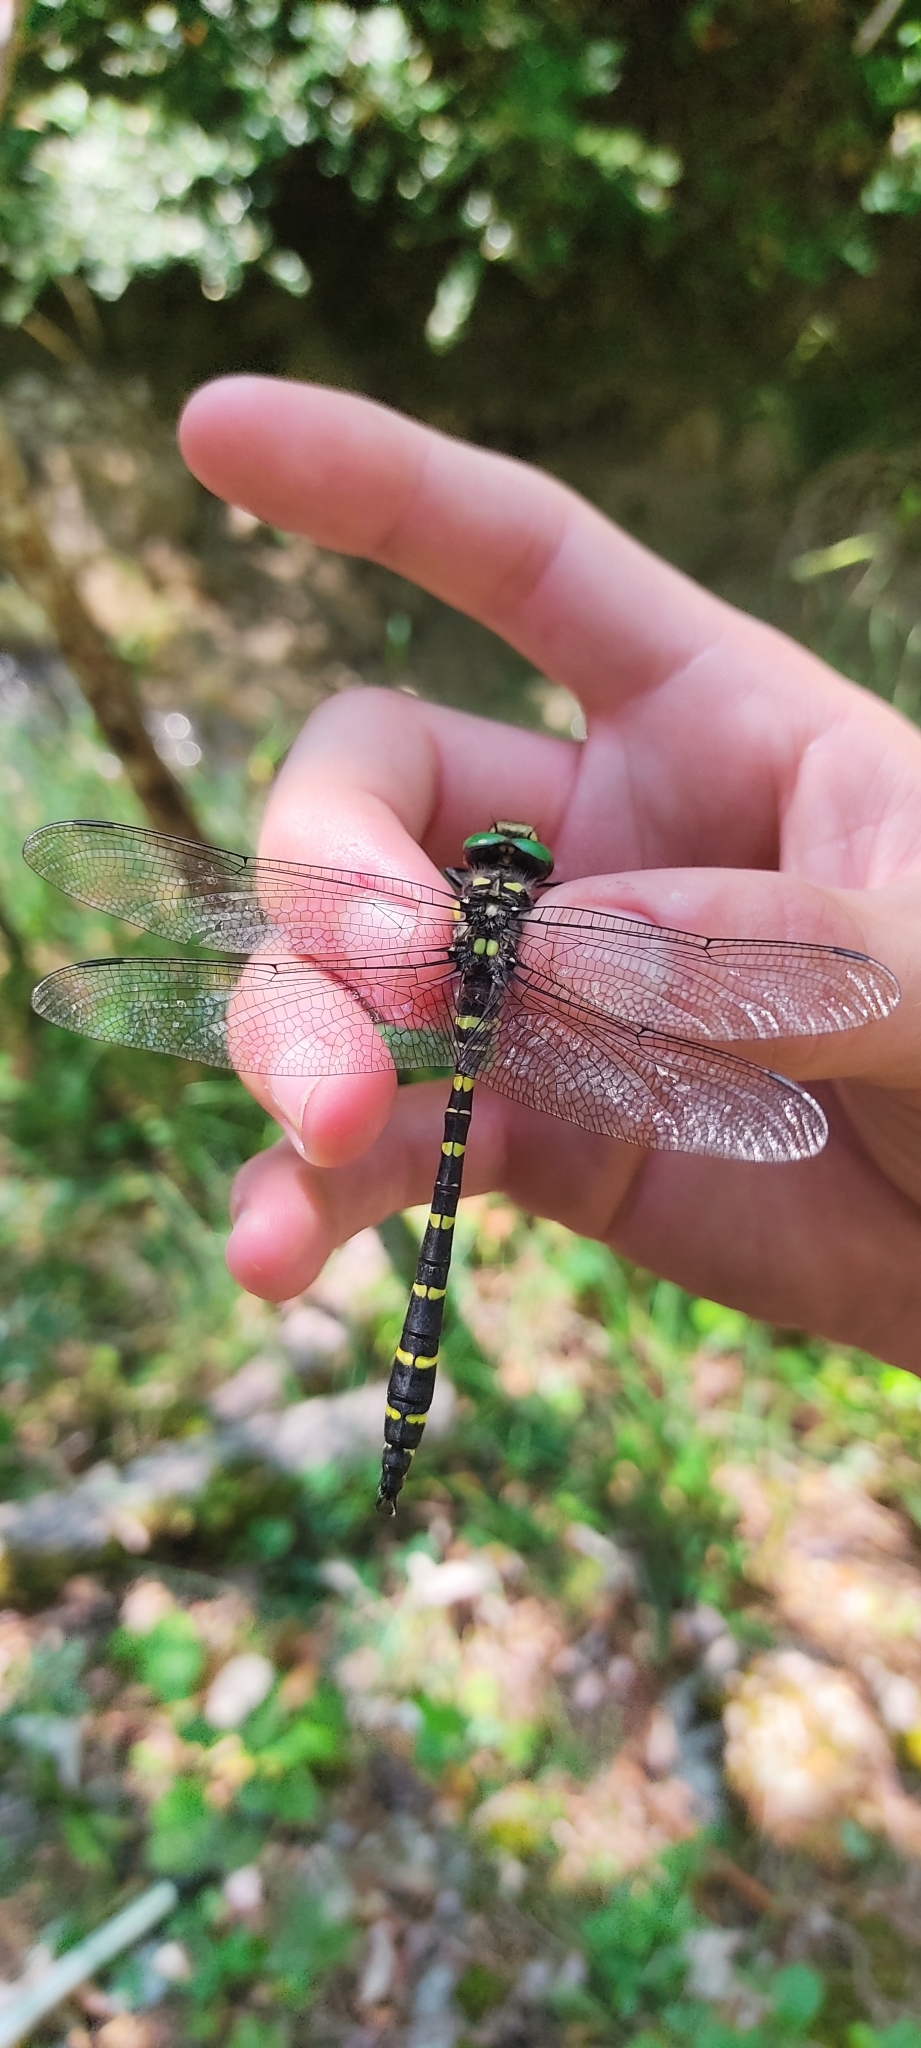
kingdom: Animalia
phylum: Arthropoda
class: Insecta
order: Odonata
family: Cordulegastridae
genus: Cordulegaster
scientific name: Cordulegaster bidentata
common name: Sombre goldenring
